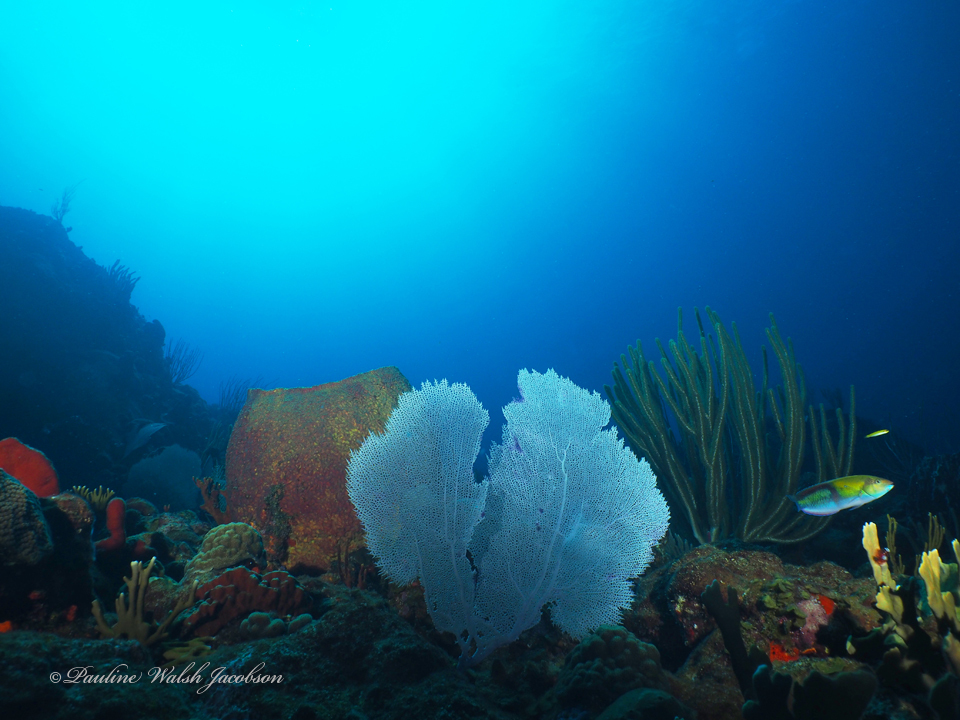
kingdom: Animalia
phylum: Chordata
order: Perciformes
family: Labridae
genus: Halichoeres
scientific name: Halichoeres garnoti
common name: Yellowhead wrasse
